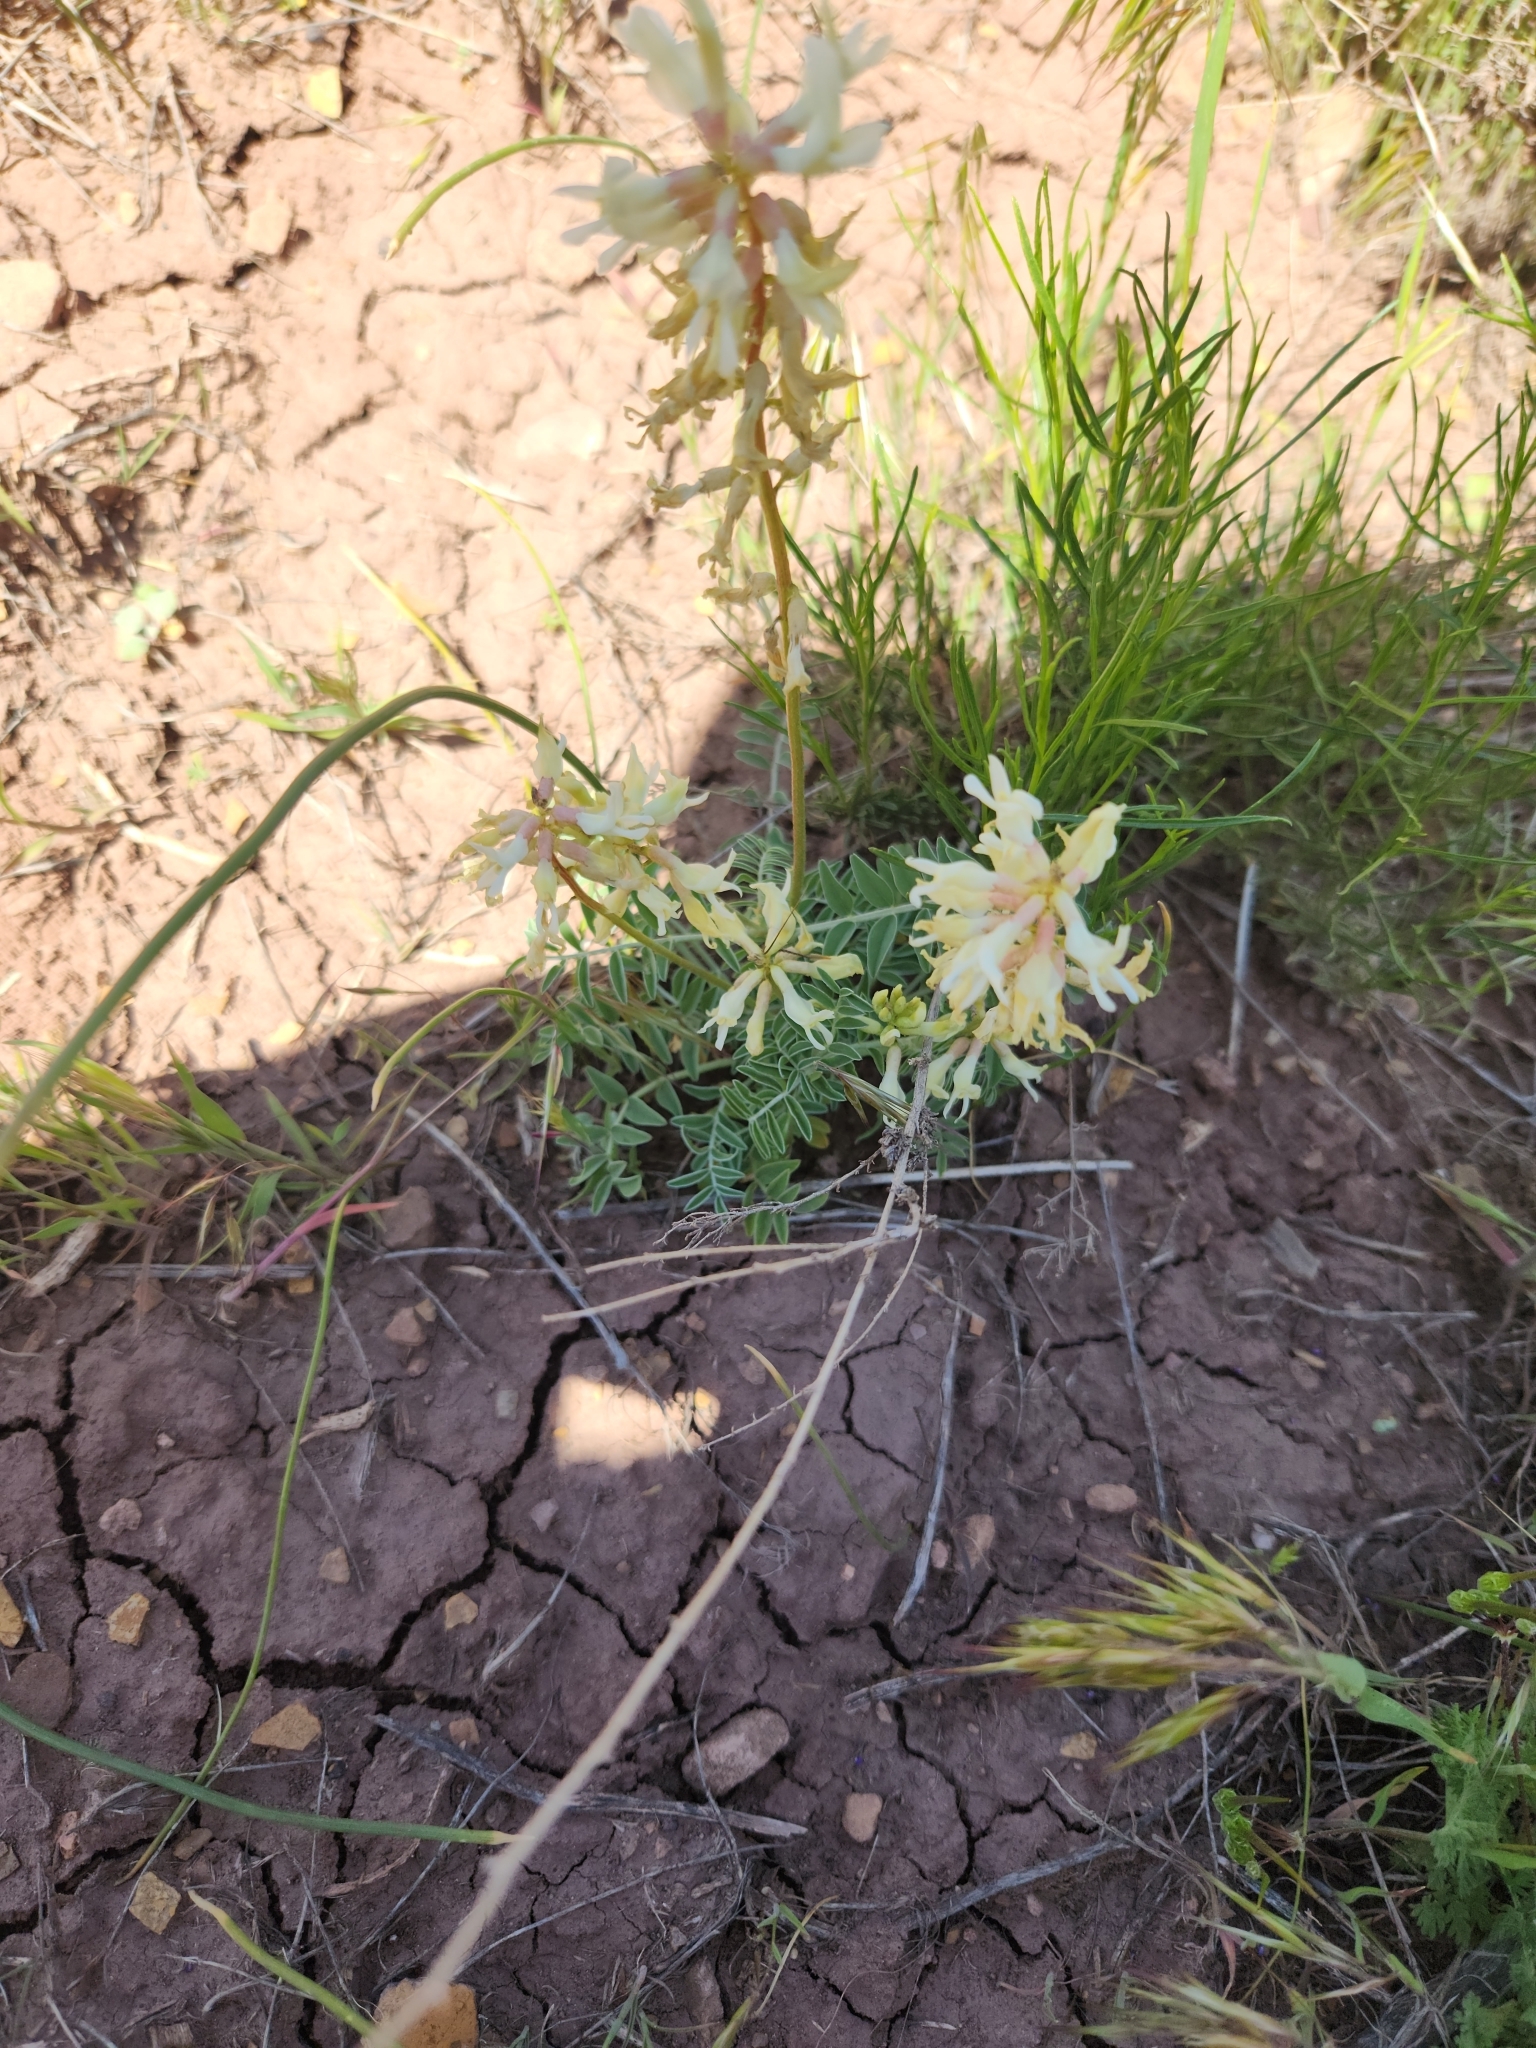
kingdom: Plantae
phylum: Tracheophyta
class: Magnoliopsida
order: Fabales
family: Fabaceae
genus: Astragalus
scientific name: Astragalus ampullarioides
